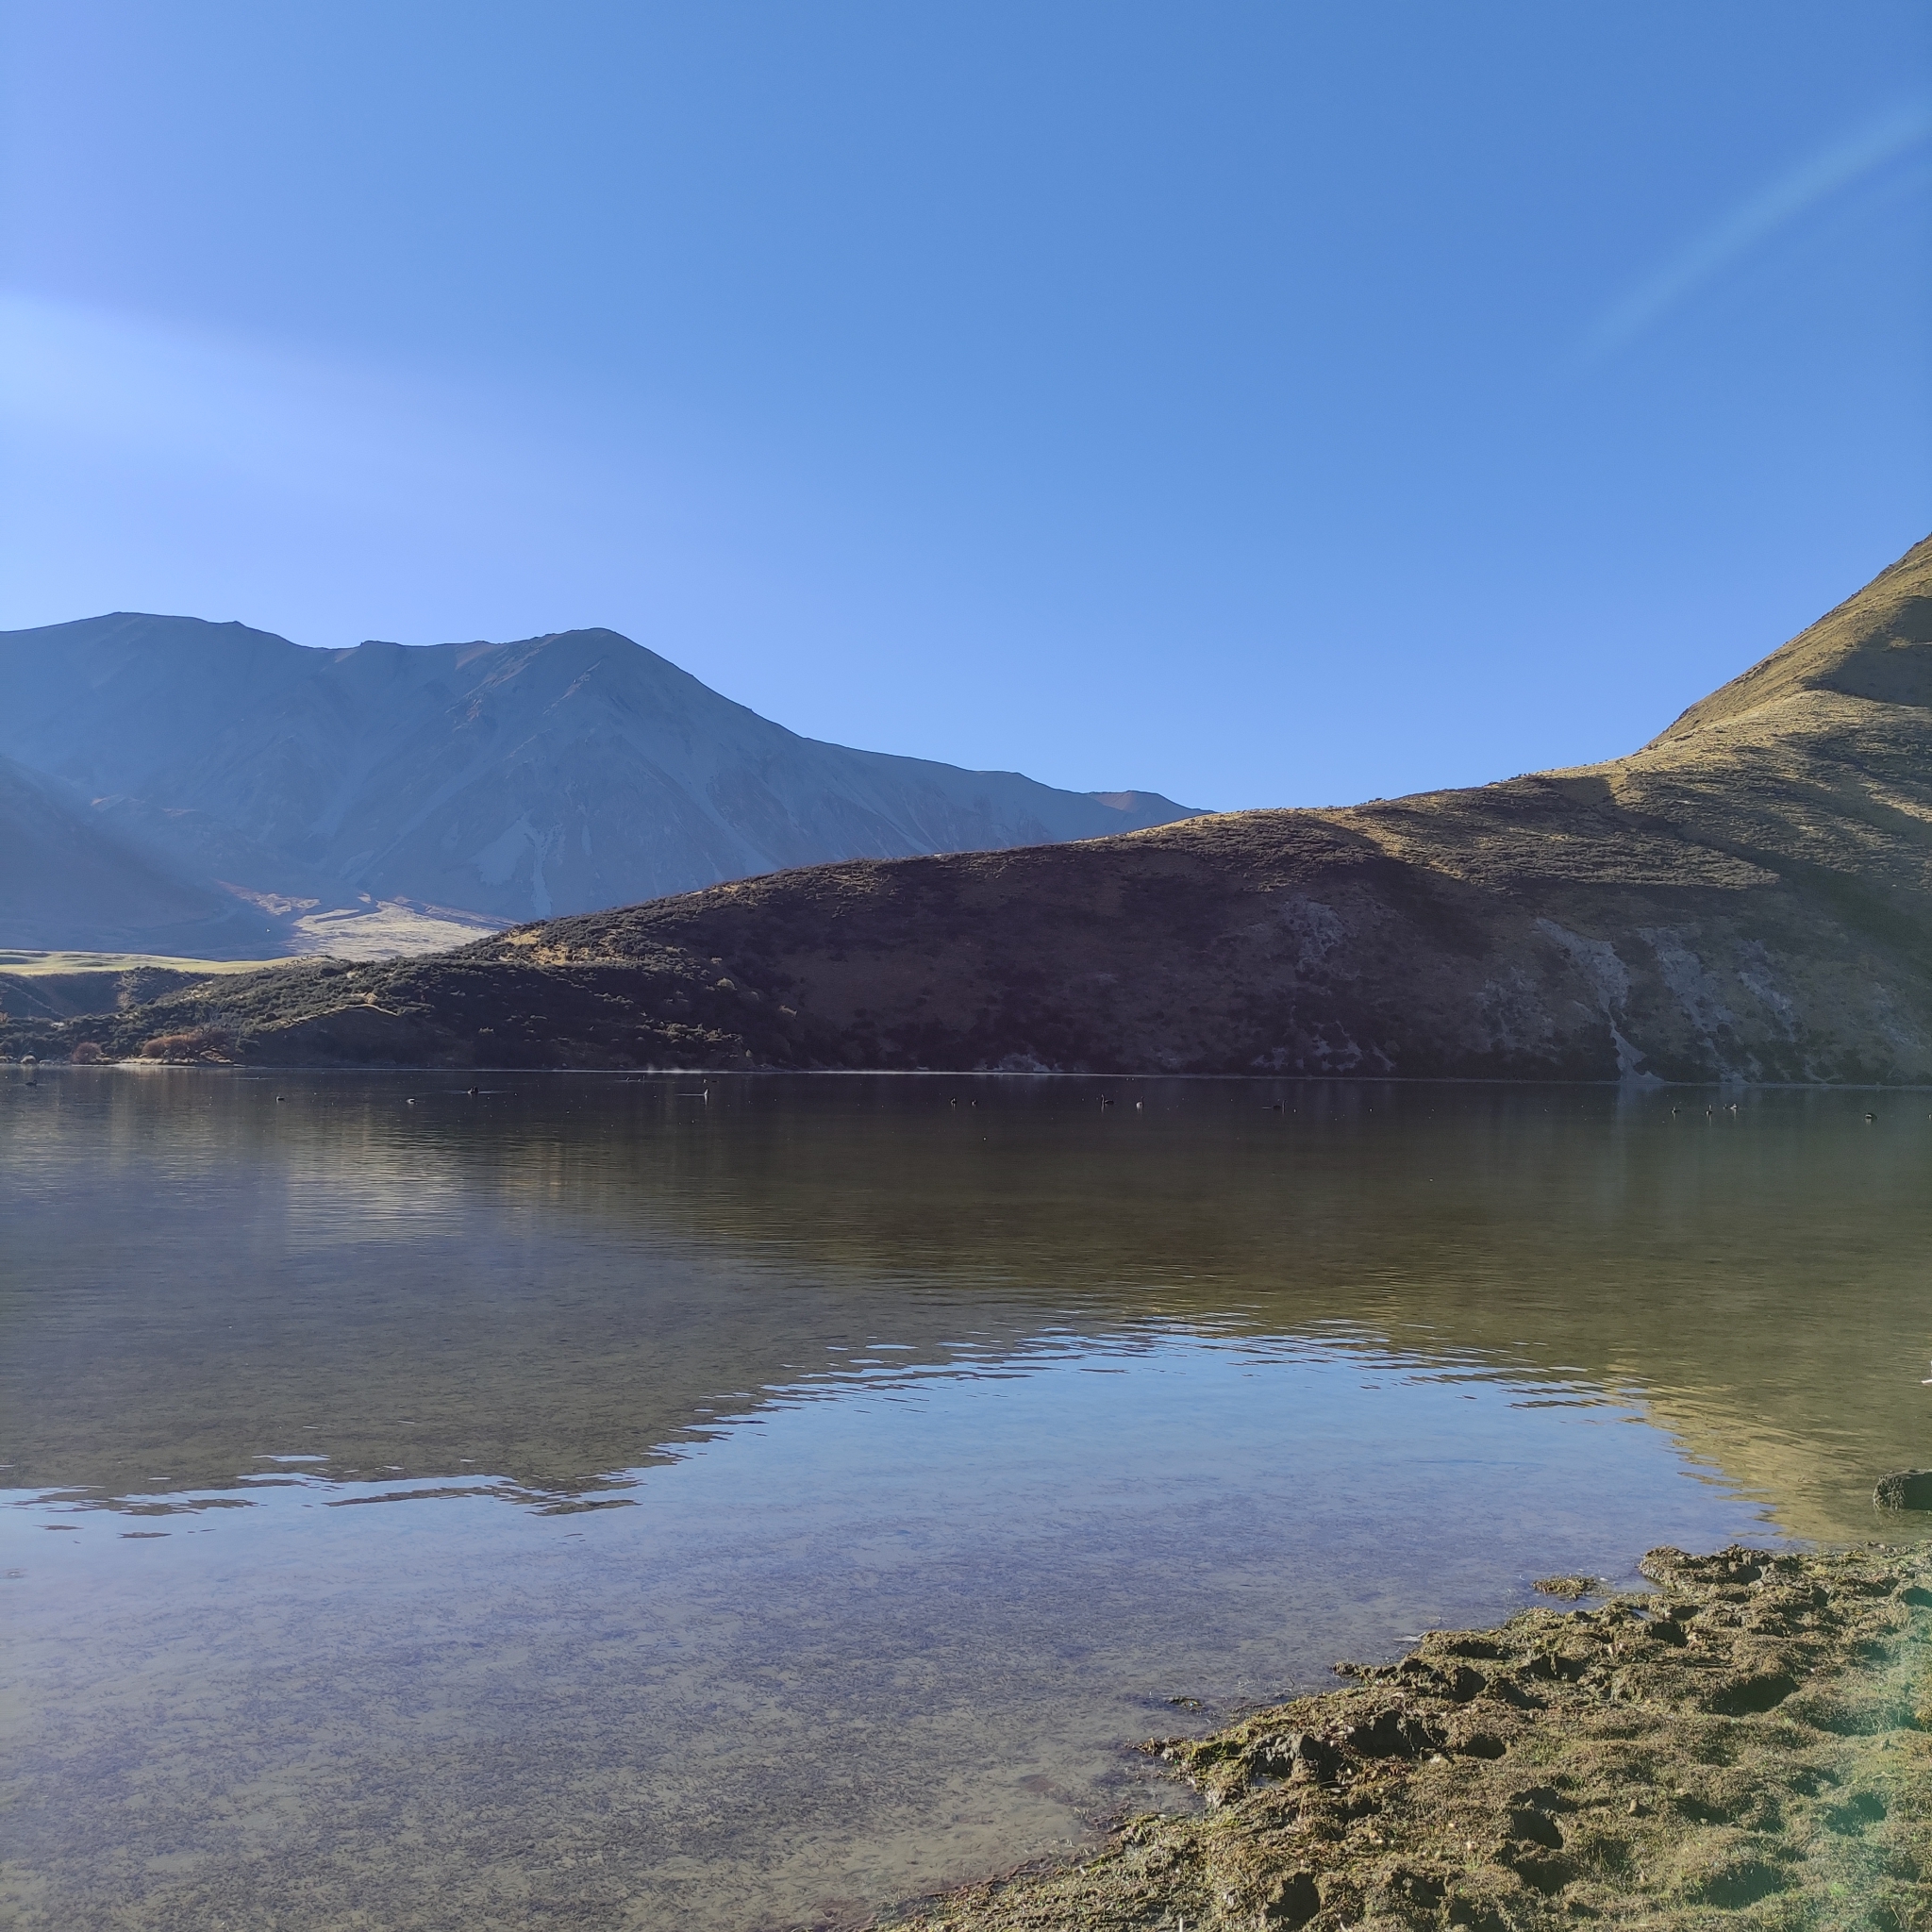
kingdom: Animalia
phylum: Chordata
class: Aves
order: Anseriformes
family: Anatidae
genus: Cygnus
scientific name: Cygnus atratus
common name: Black swan
